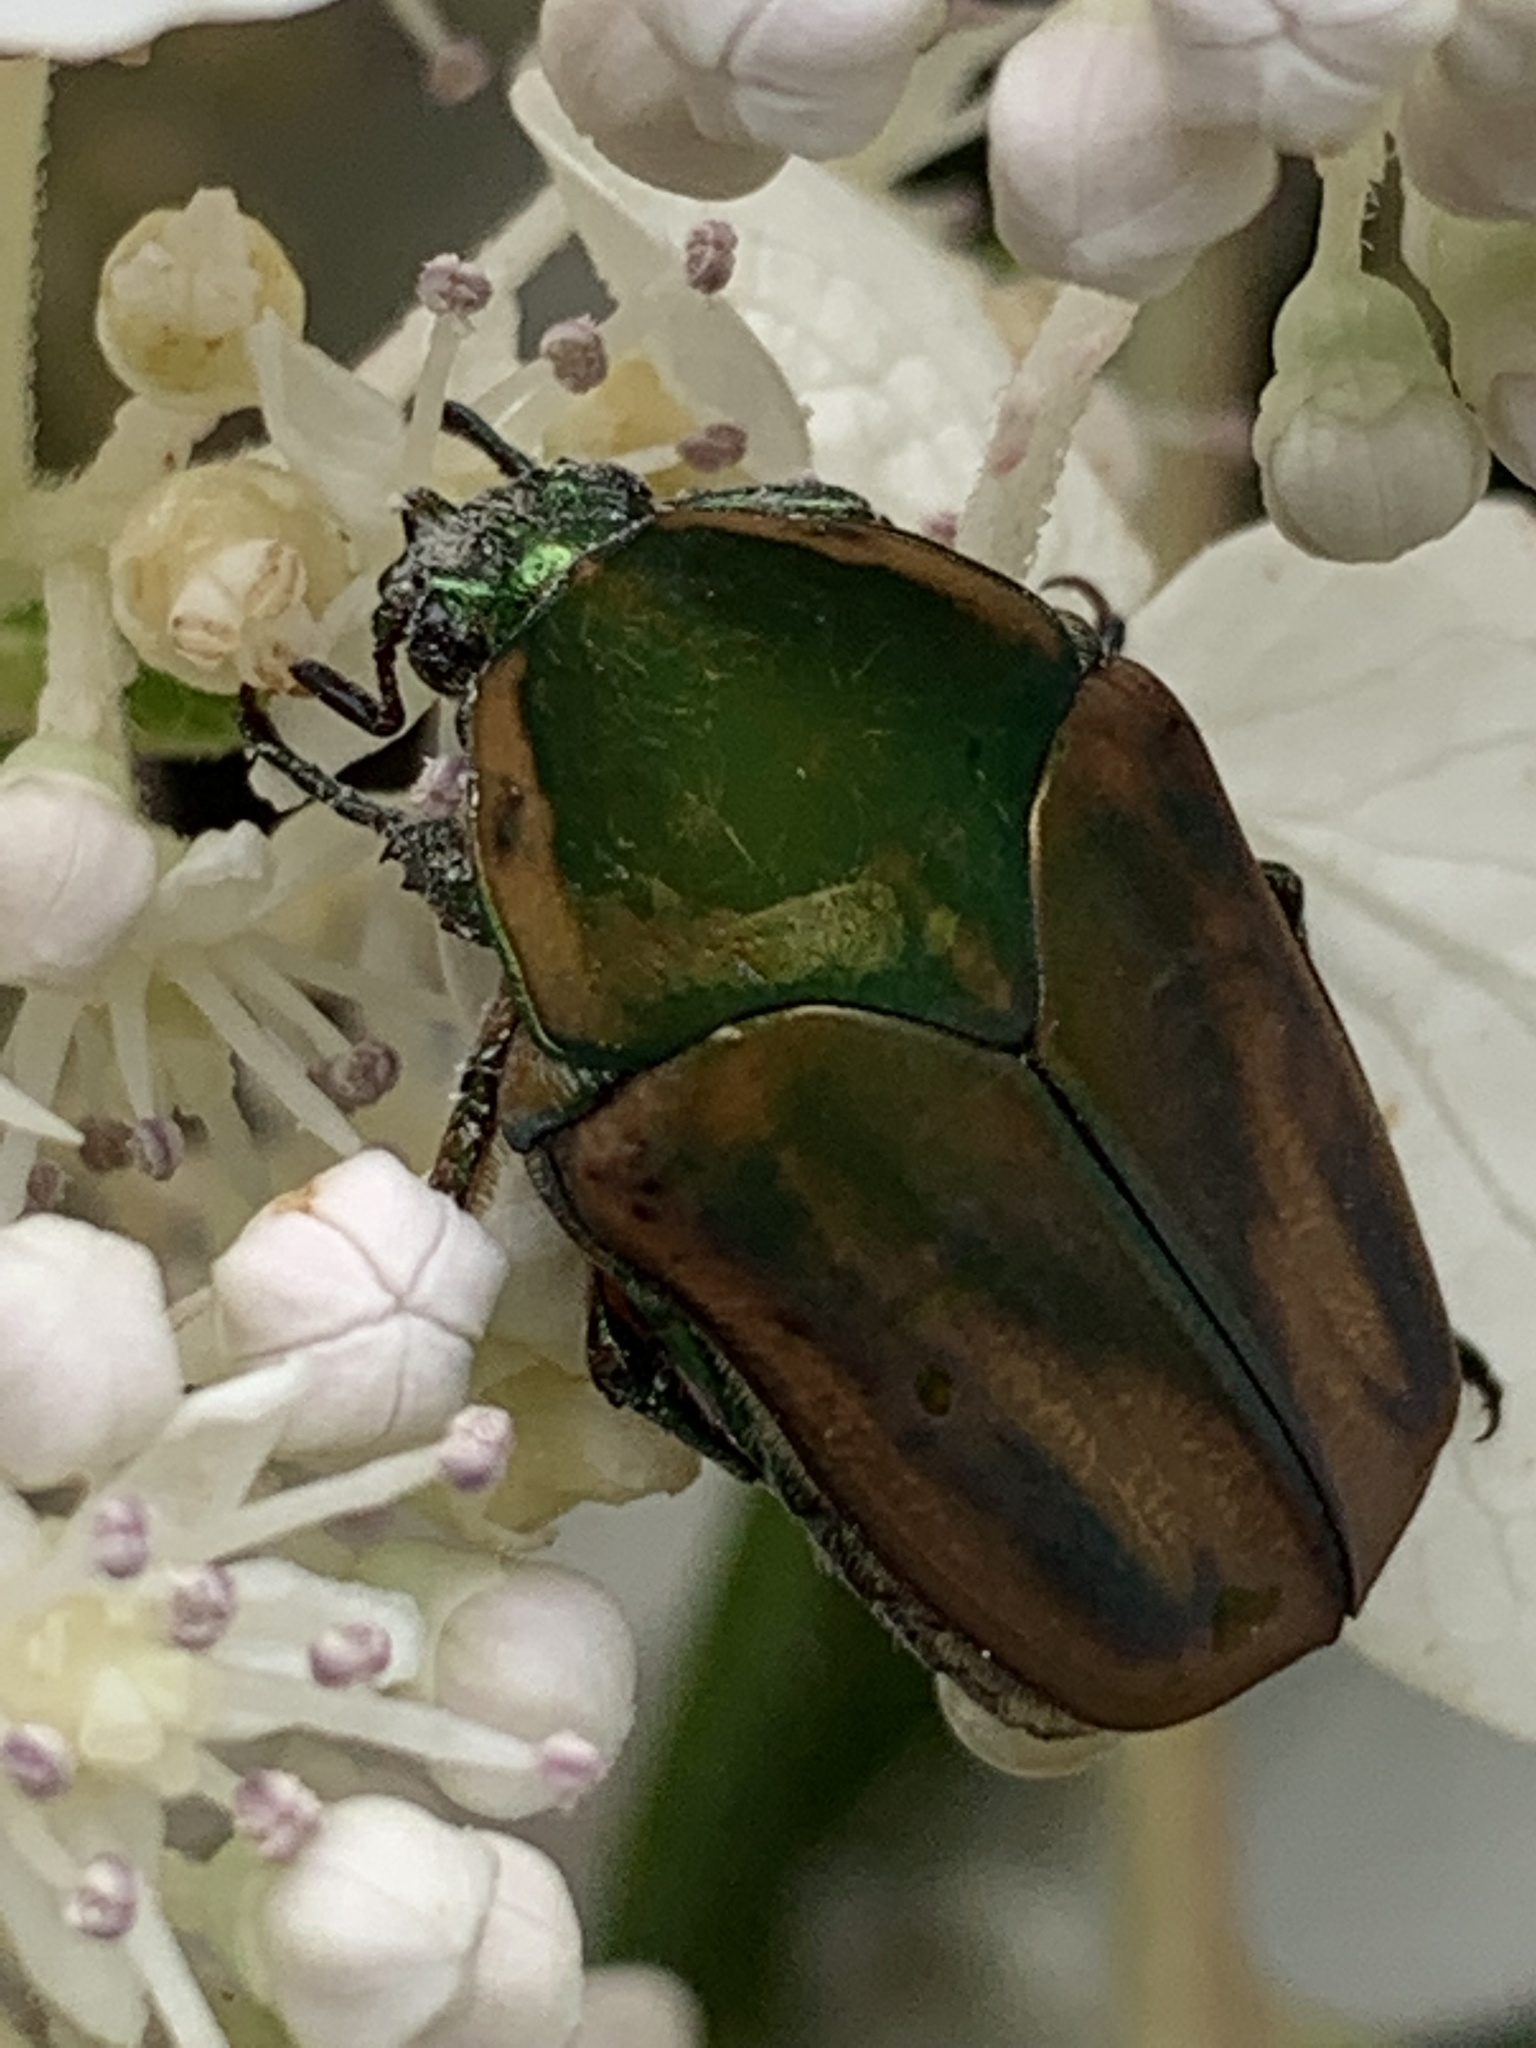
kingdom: Animalia
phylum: Arthropoda
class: Insecta
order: Coleoptera
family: Scarabaeidae
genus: Cotinis
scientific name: Cotinis nitida
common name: Common green june beetle
